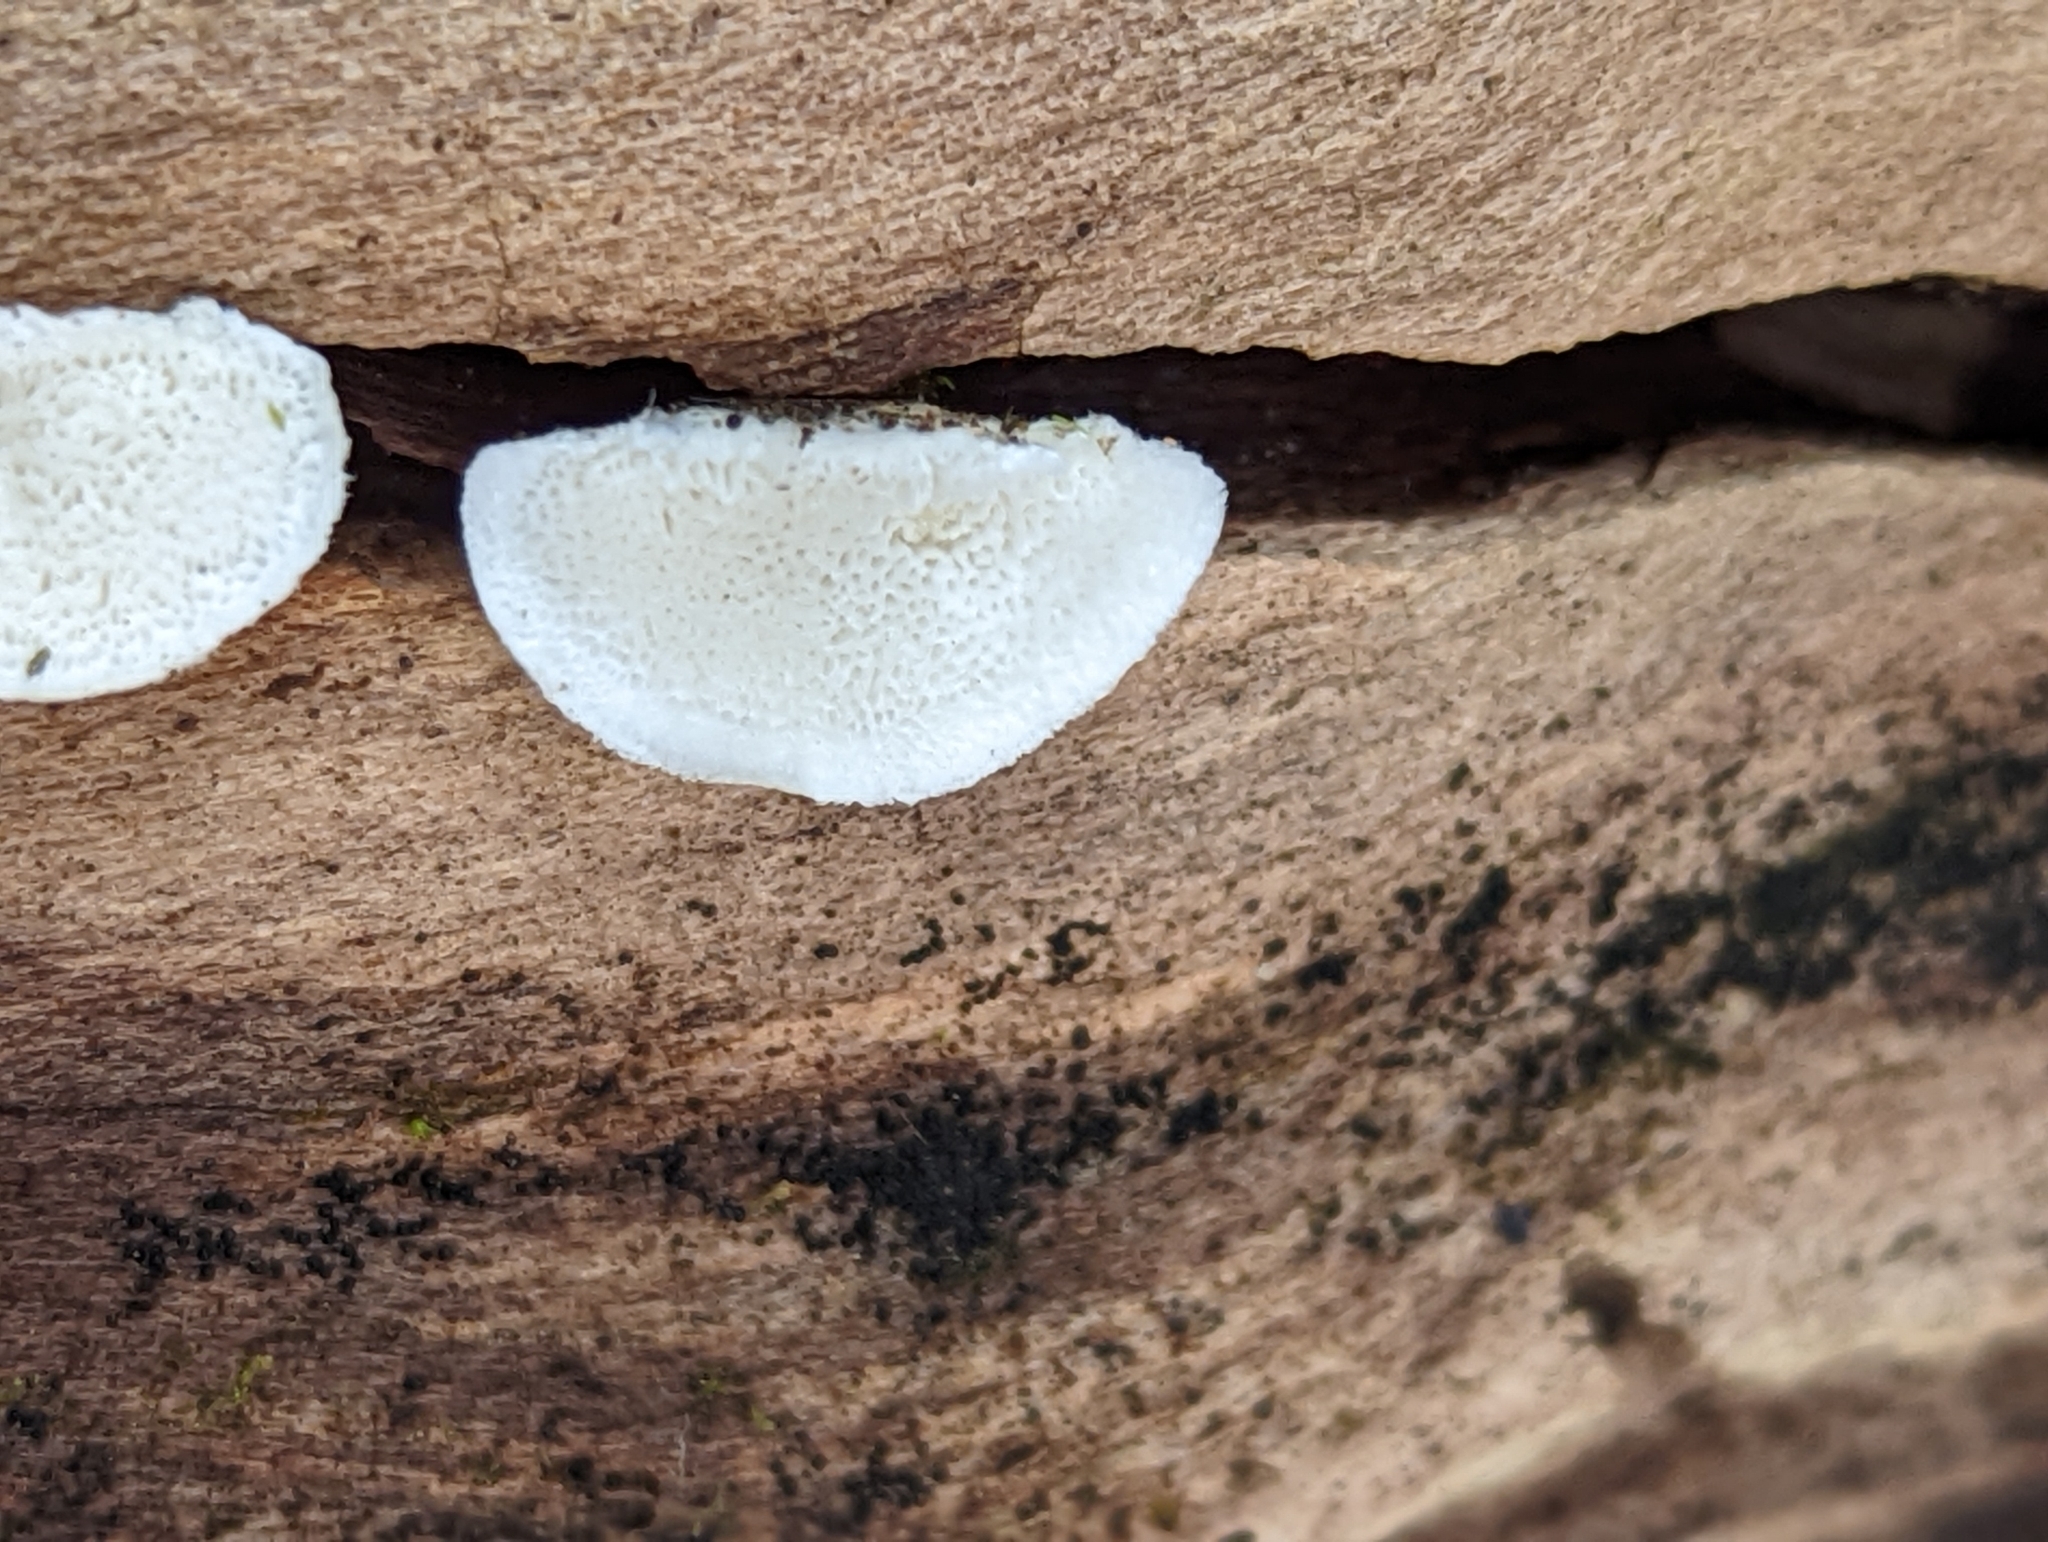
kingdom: Fungi
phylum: Basidiomycota
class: Agaricomycetes
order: Polyporales
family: Polyporaceae
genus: Cyanosporus
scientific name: Cyanosporus caesiosimulans
